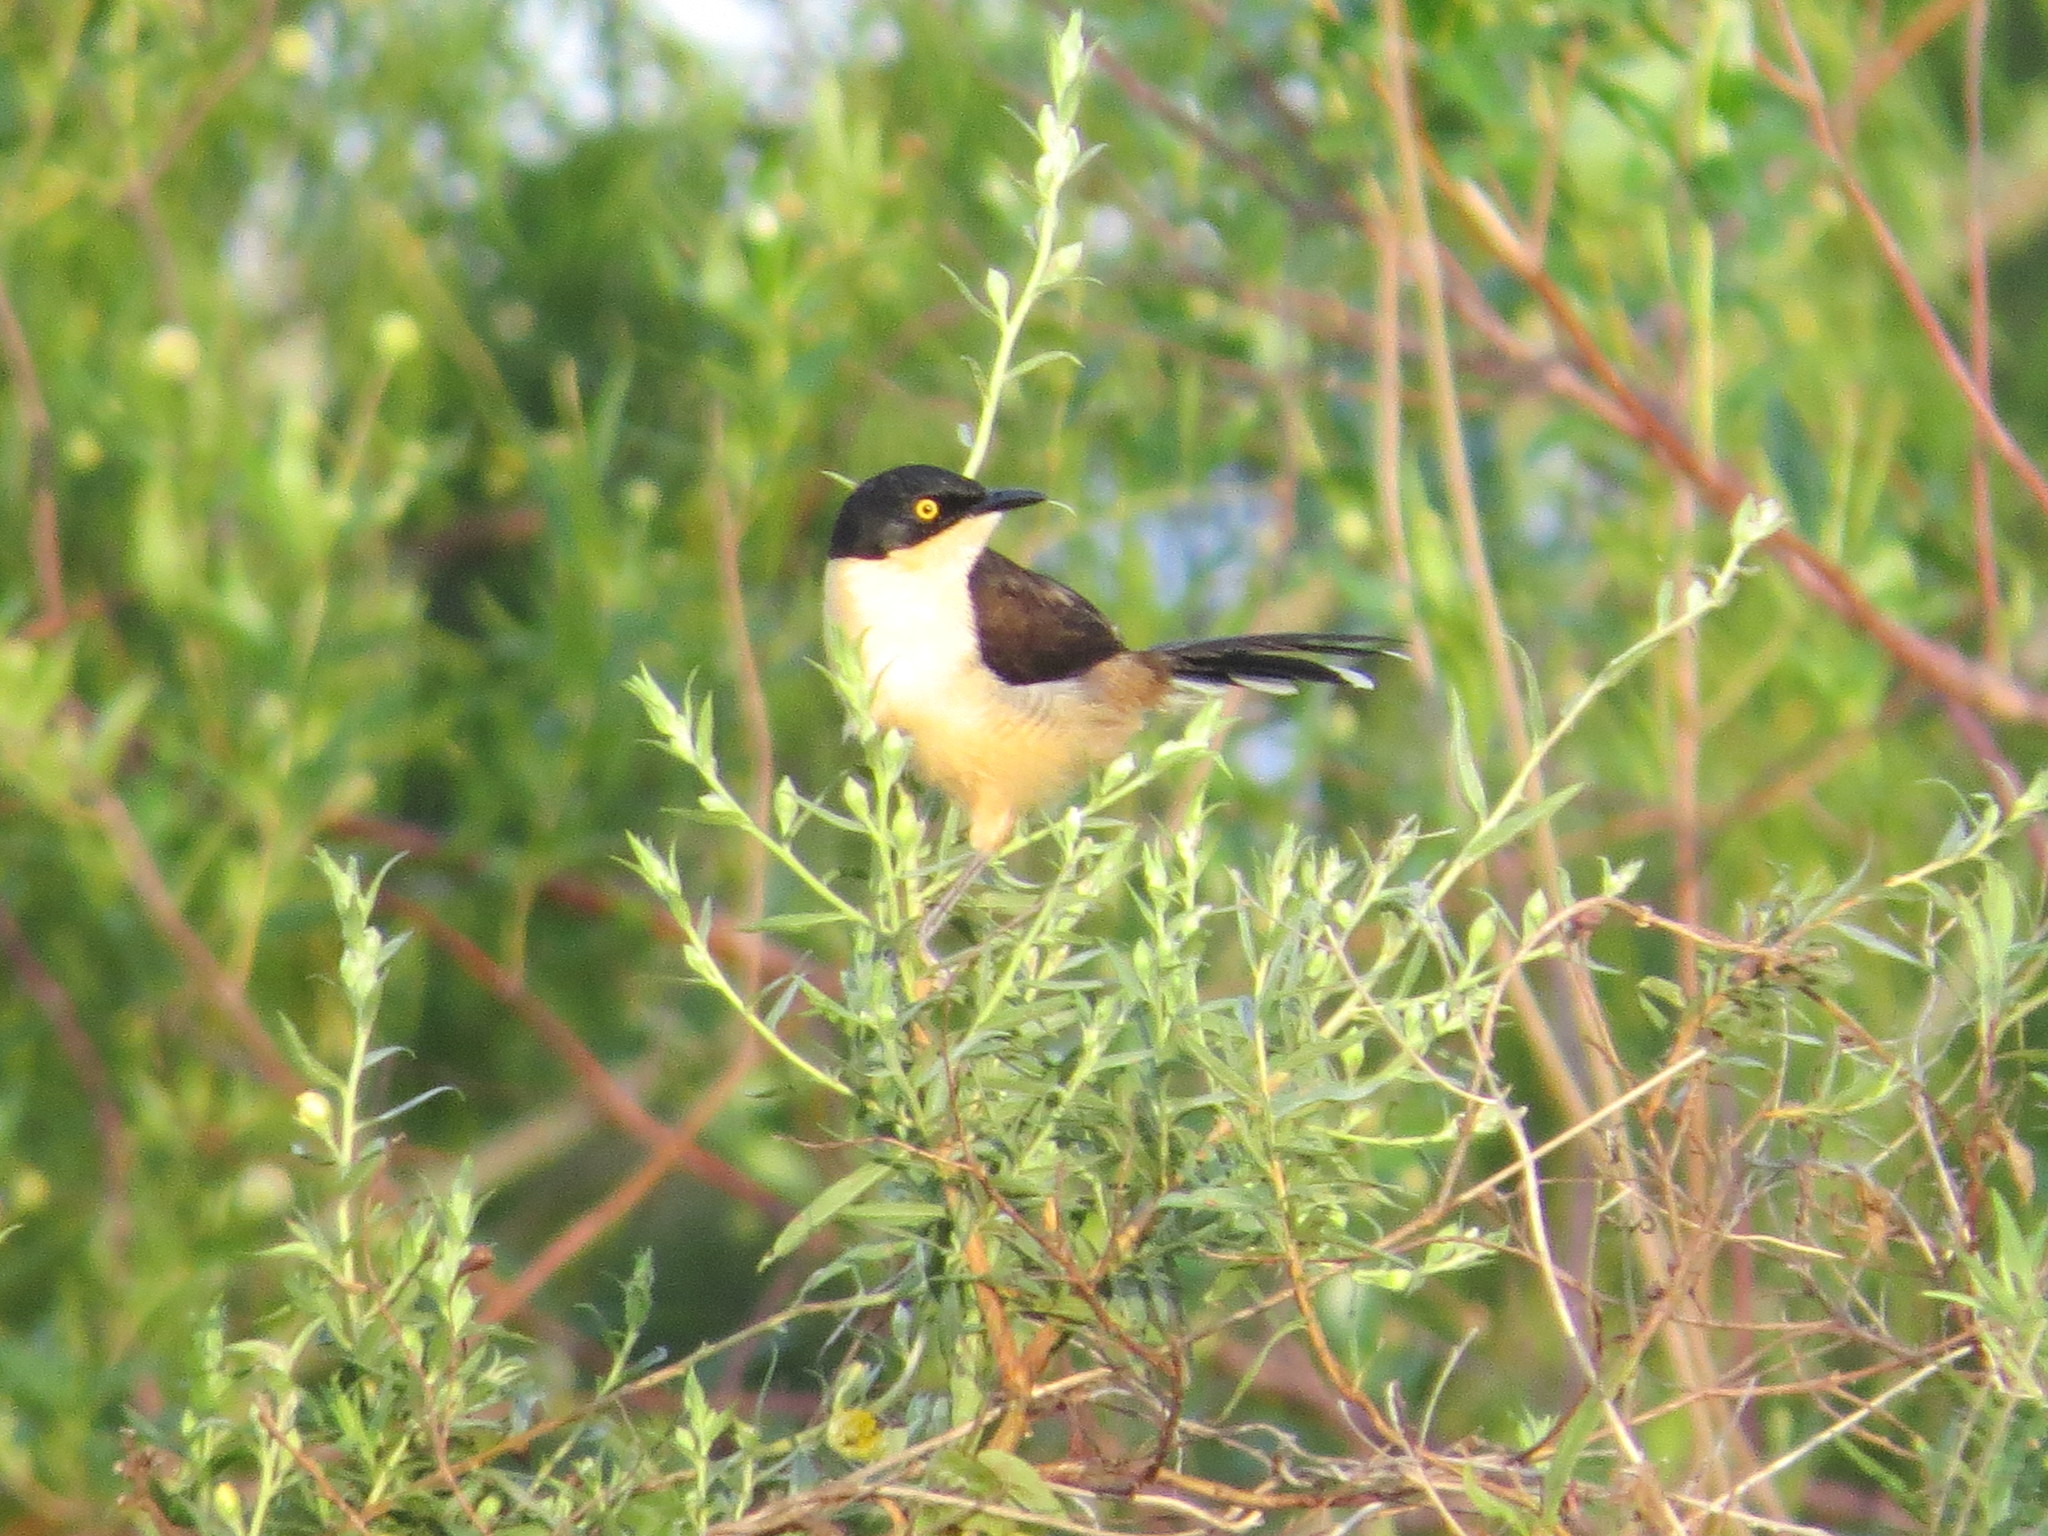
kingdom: Animalia
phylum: Chordata
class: Aves
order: Passeriformes
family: Donacobiidae
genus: Donacobius
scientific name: Donacobius atricapilla
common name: Black-capped donacobius
